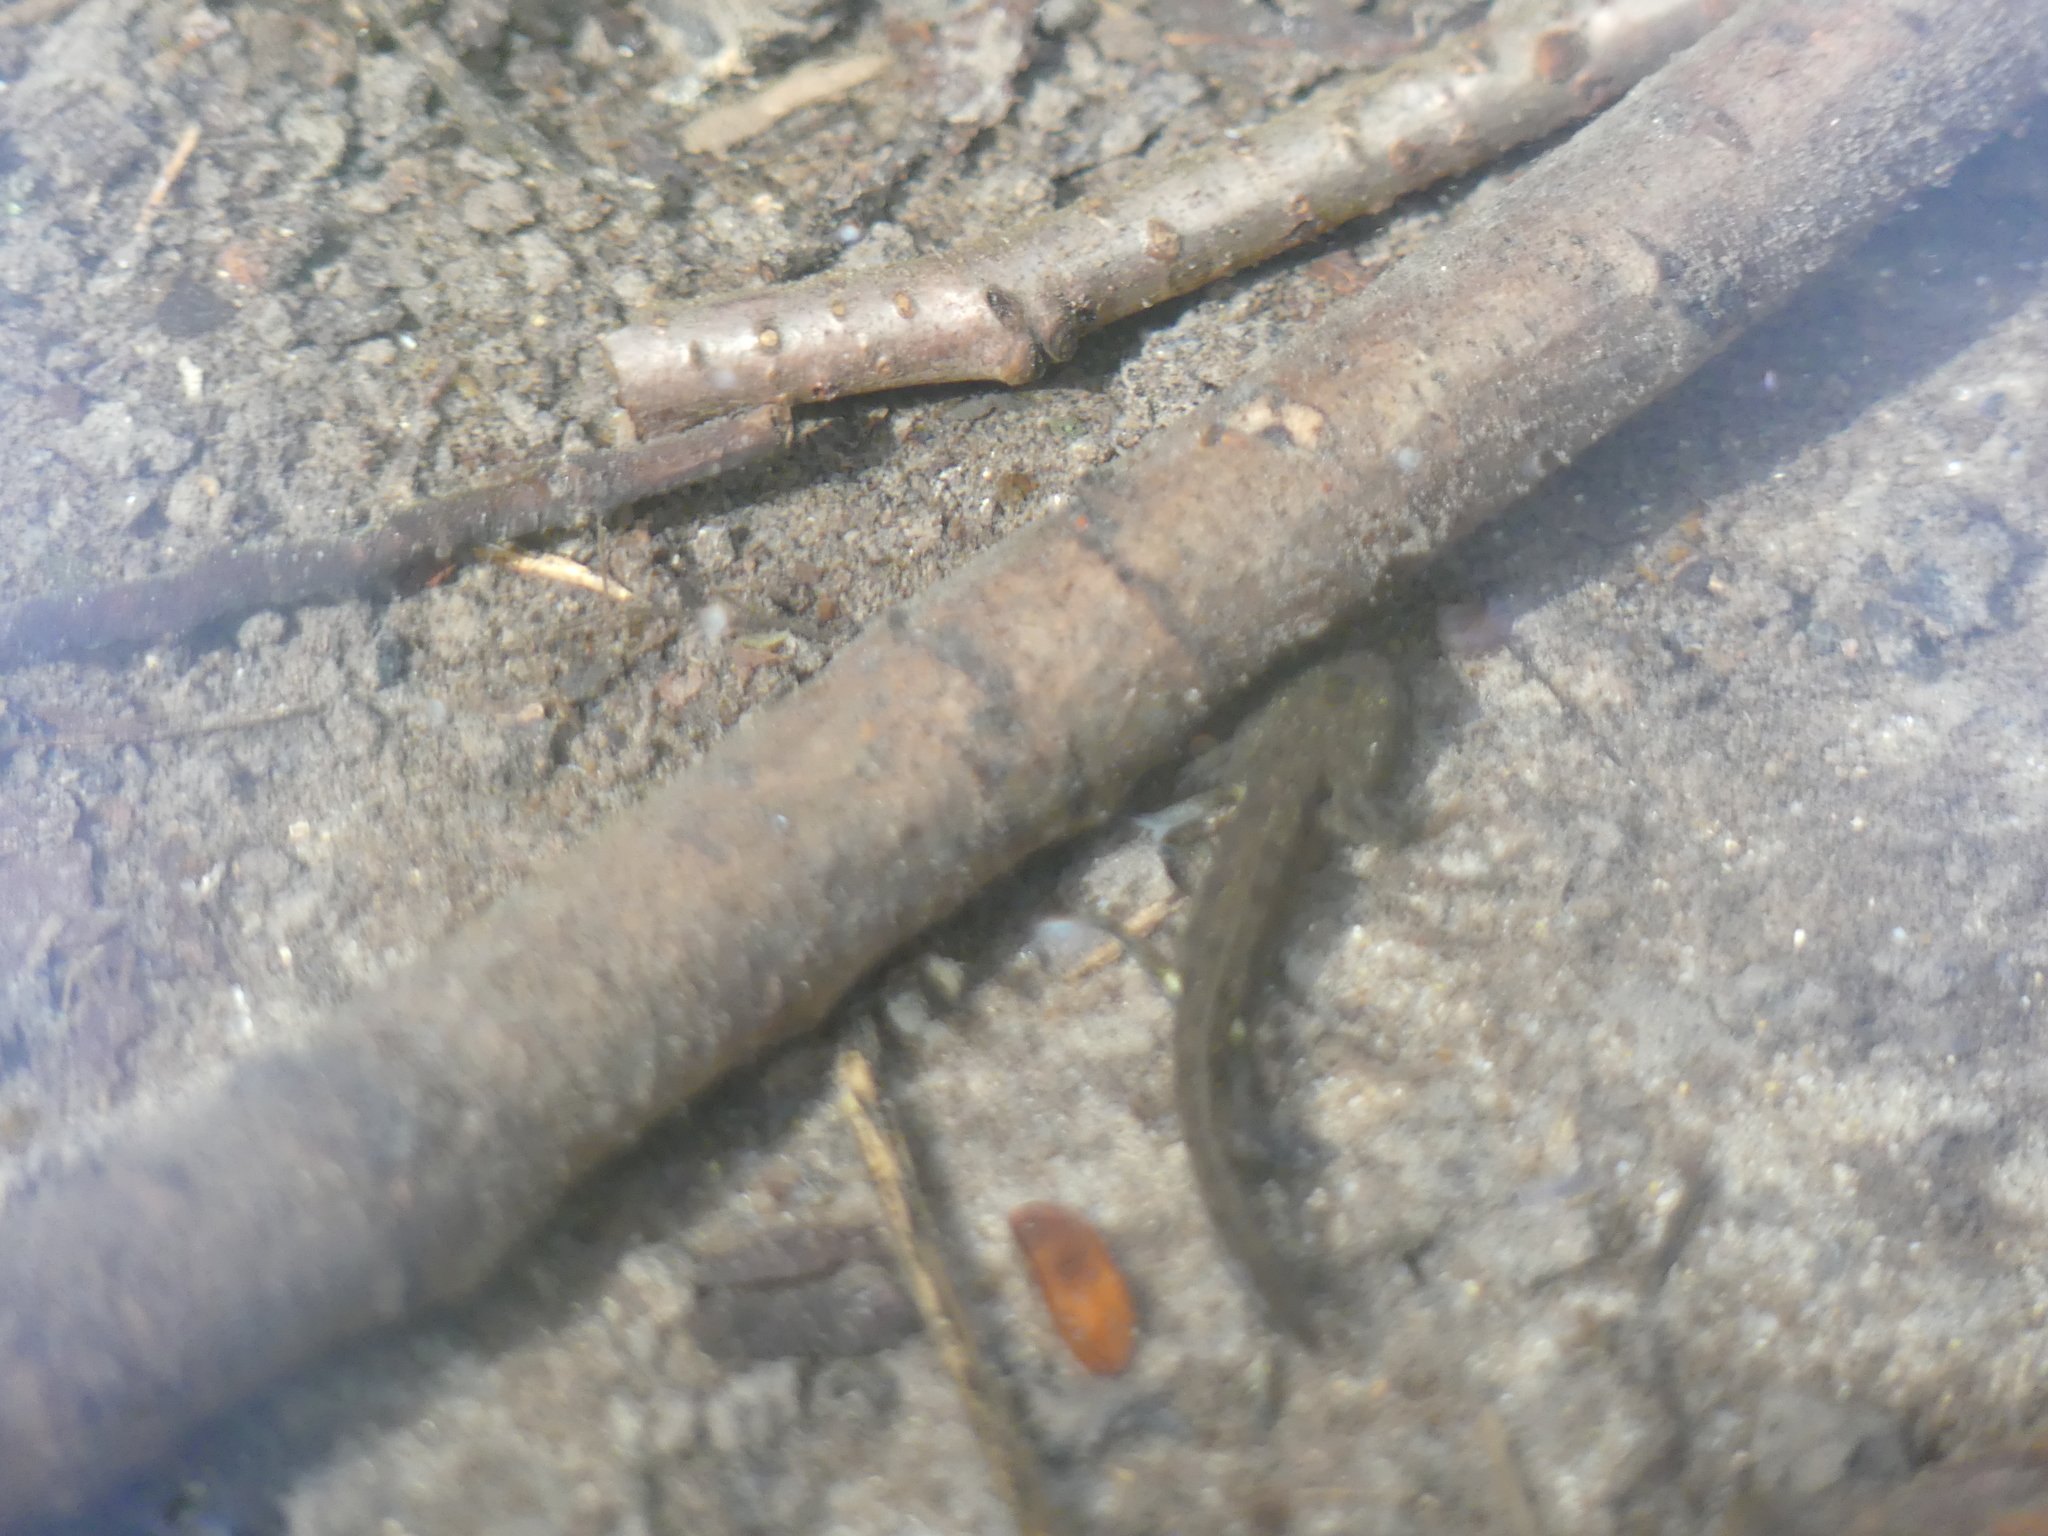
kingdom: Animalia
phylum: Chordata
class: Amphibia
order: Caudata
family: Salamandridae
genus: Salamandra
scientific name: Salamandra salamandra
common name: Fire salamander
